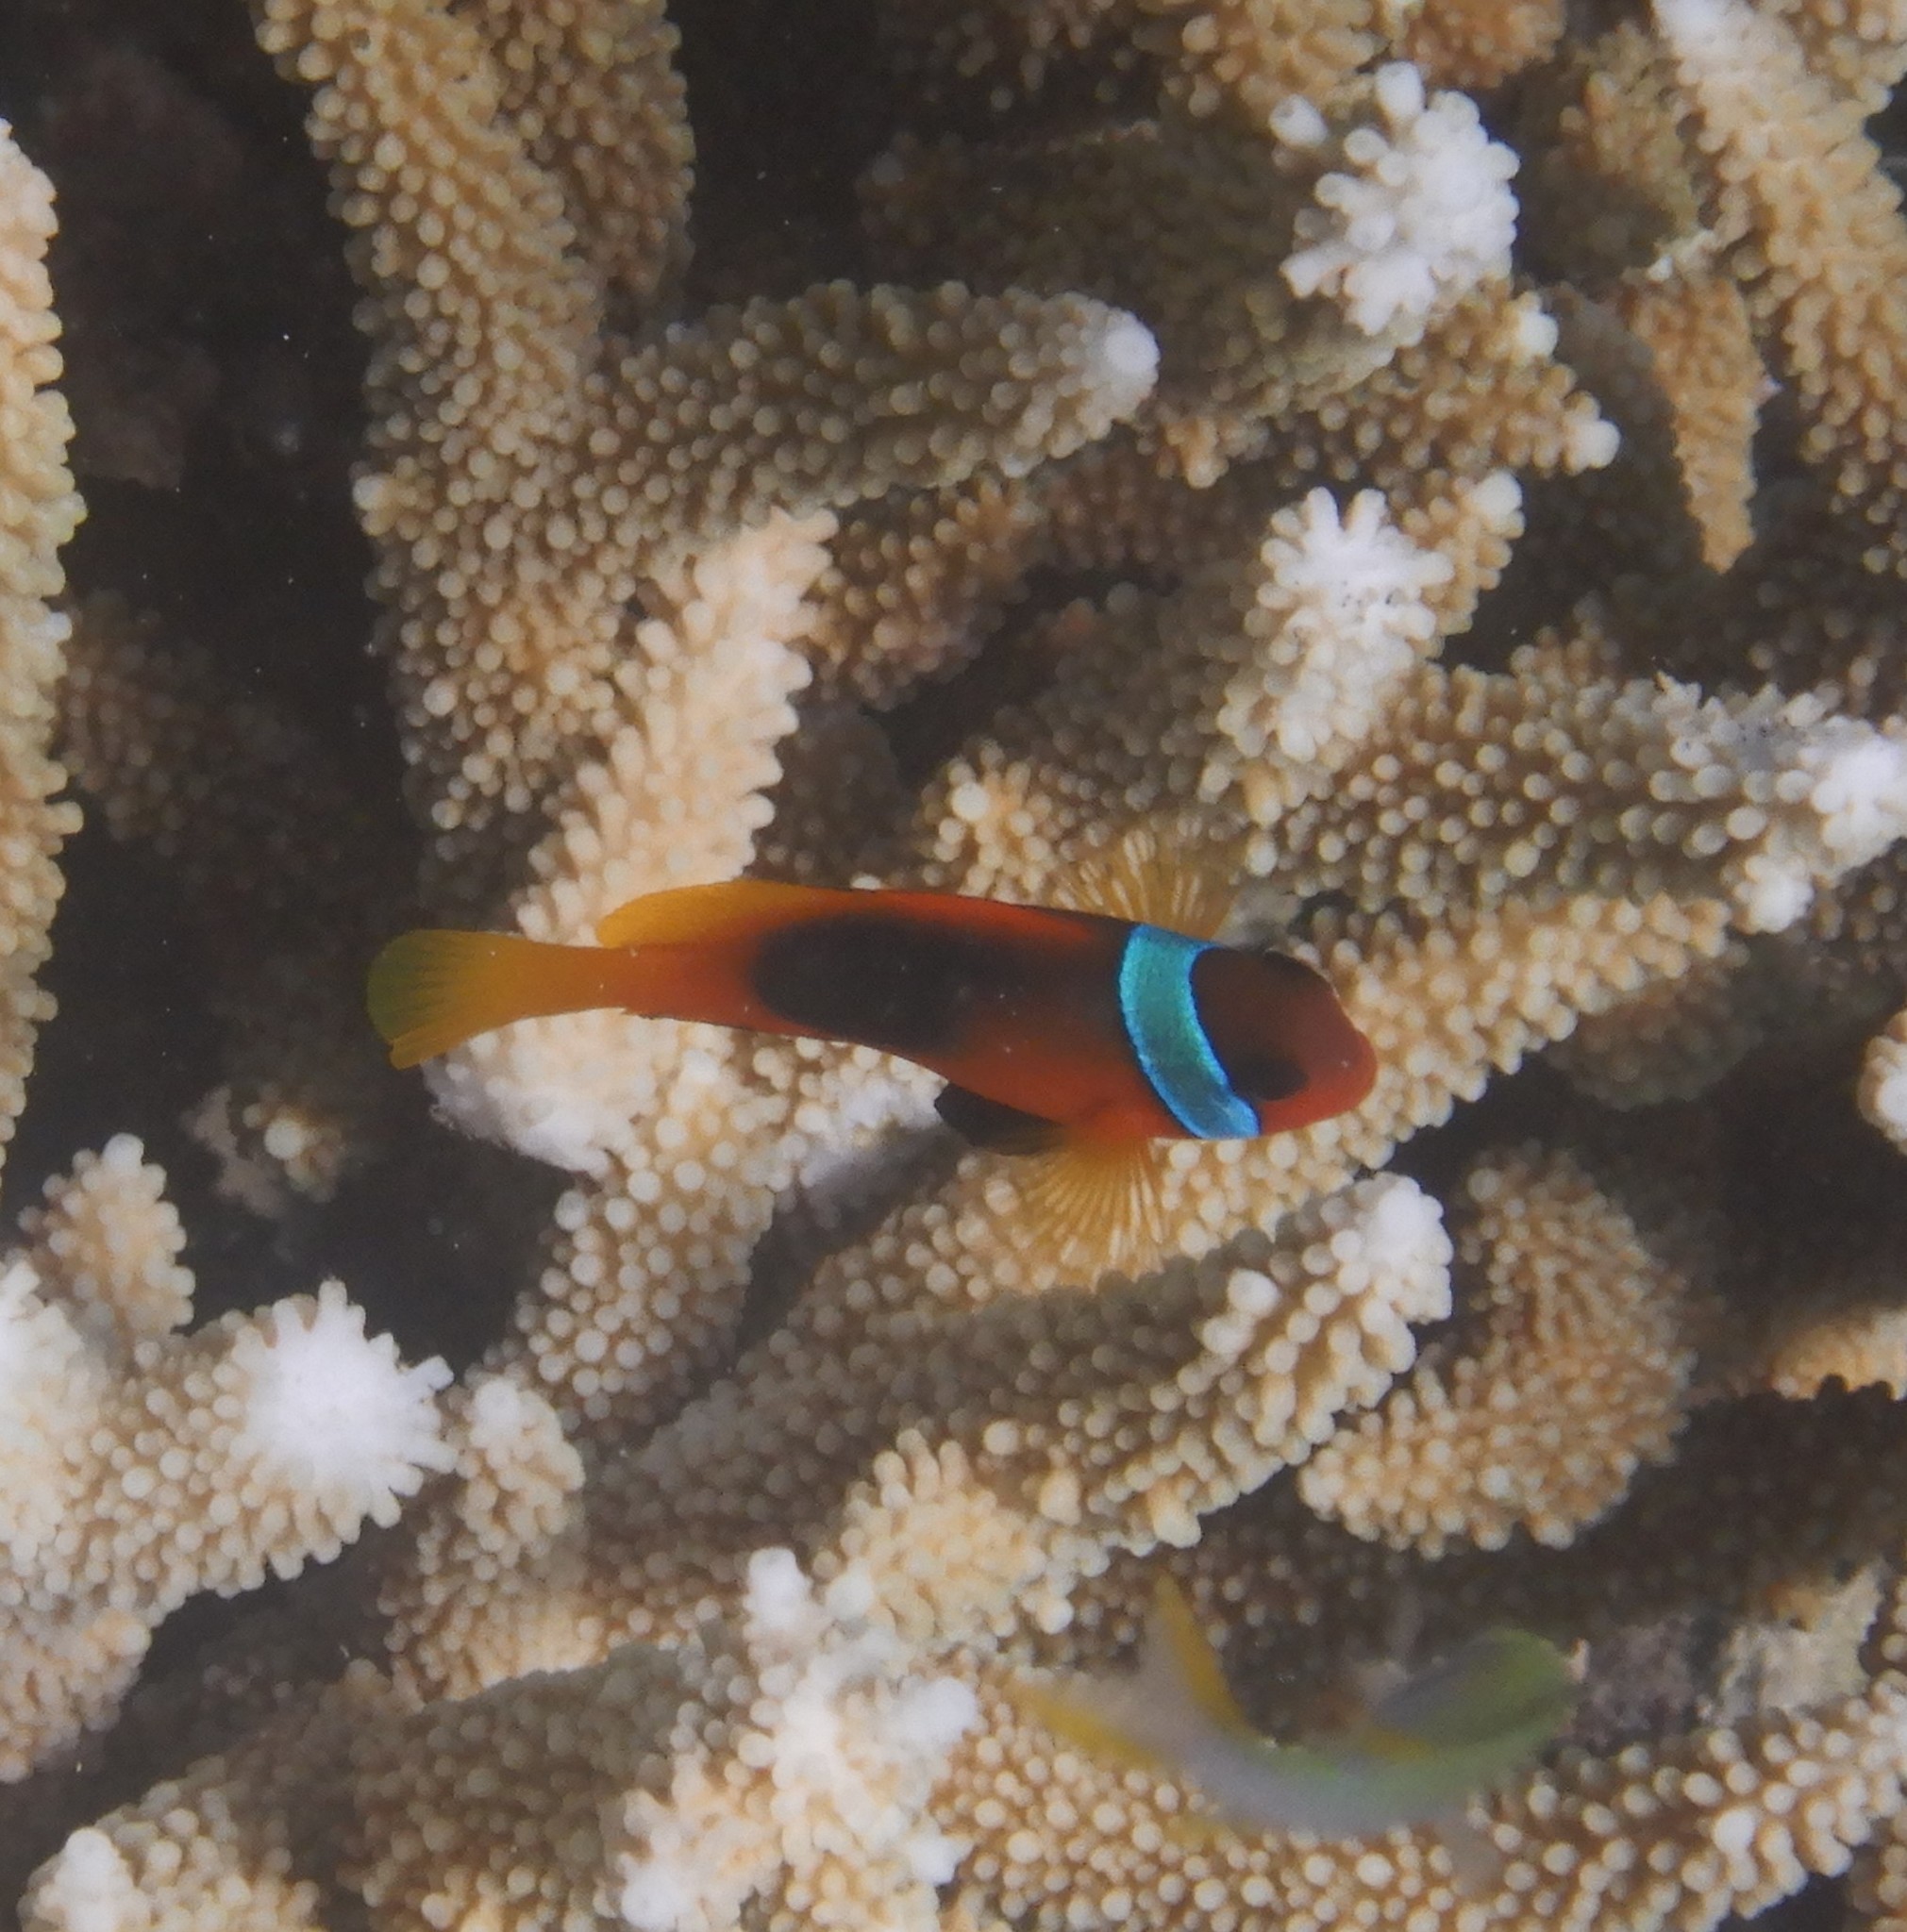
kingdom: Animalia
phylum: Chordata
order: Perciformes
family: Pomacentridae
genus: Amphiprion
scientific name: Amphiprion melanopus
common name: Black anemonefish
